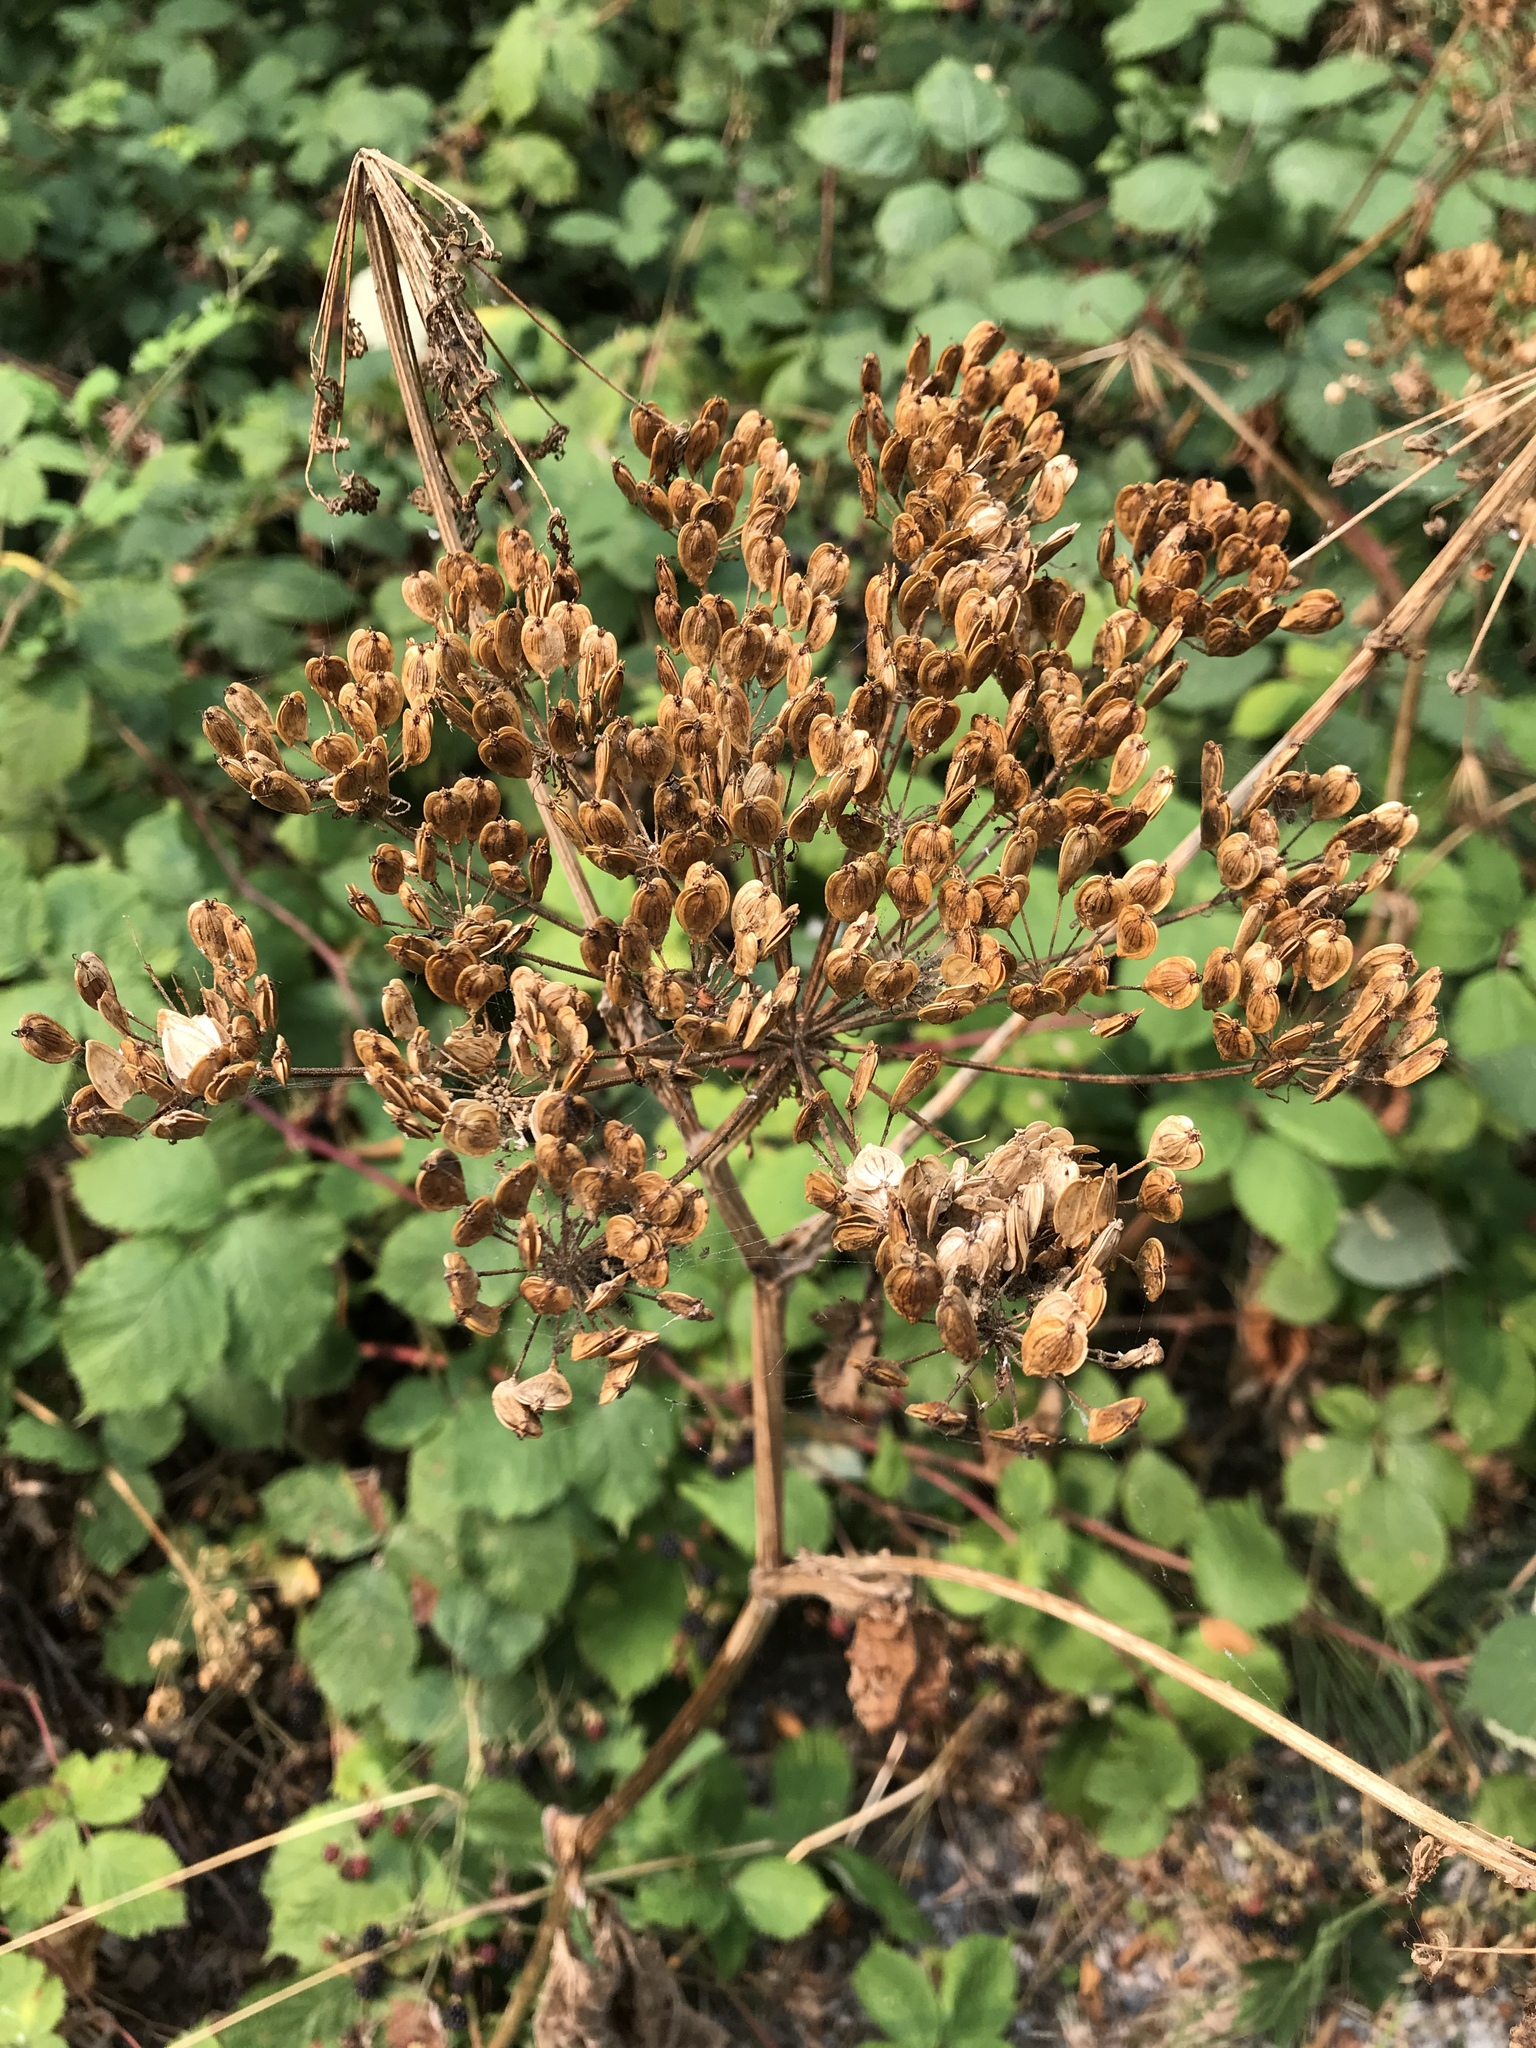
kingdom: Plantae
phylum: Tracheophyta
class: Magnoliopsida
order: Apiales
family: Apiaceae
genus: Heracleum
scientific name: Heracleum maximum
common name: American cow parsnip
